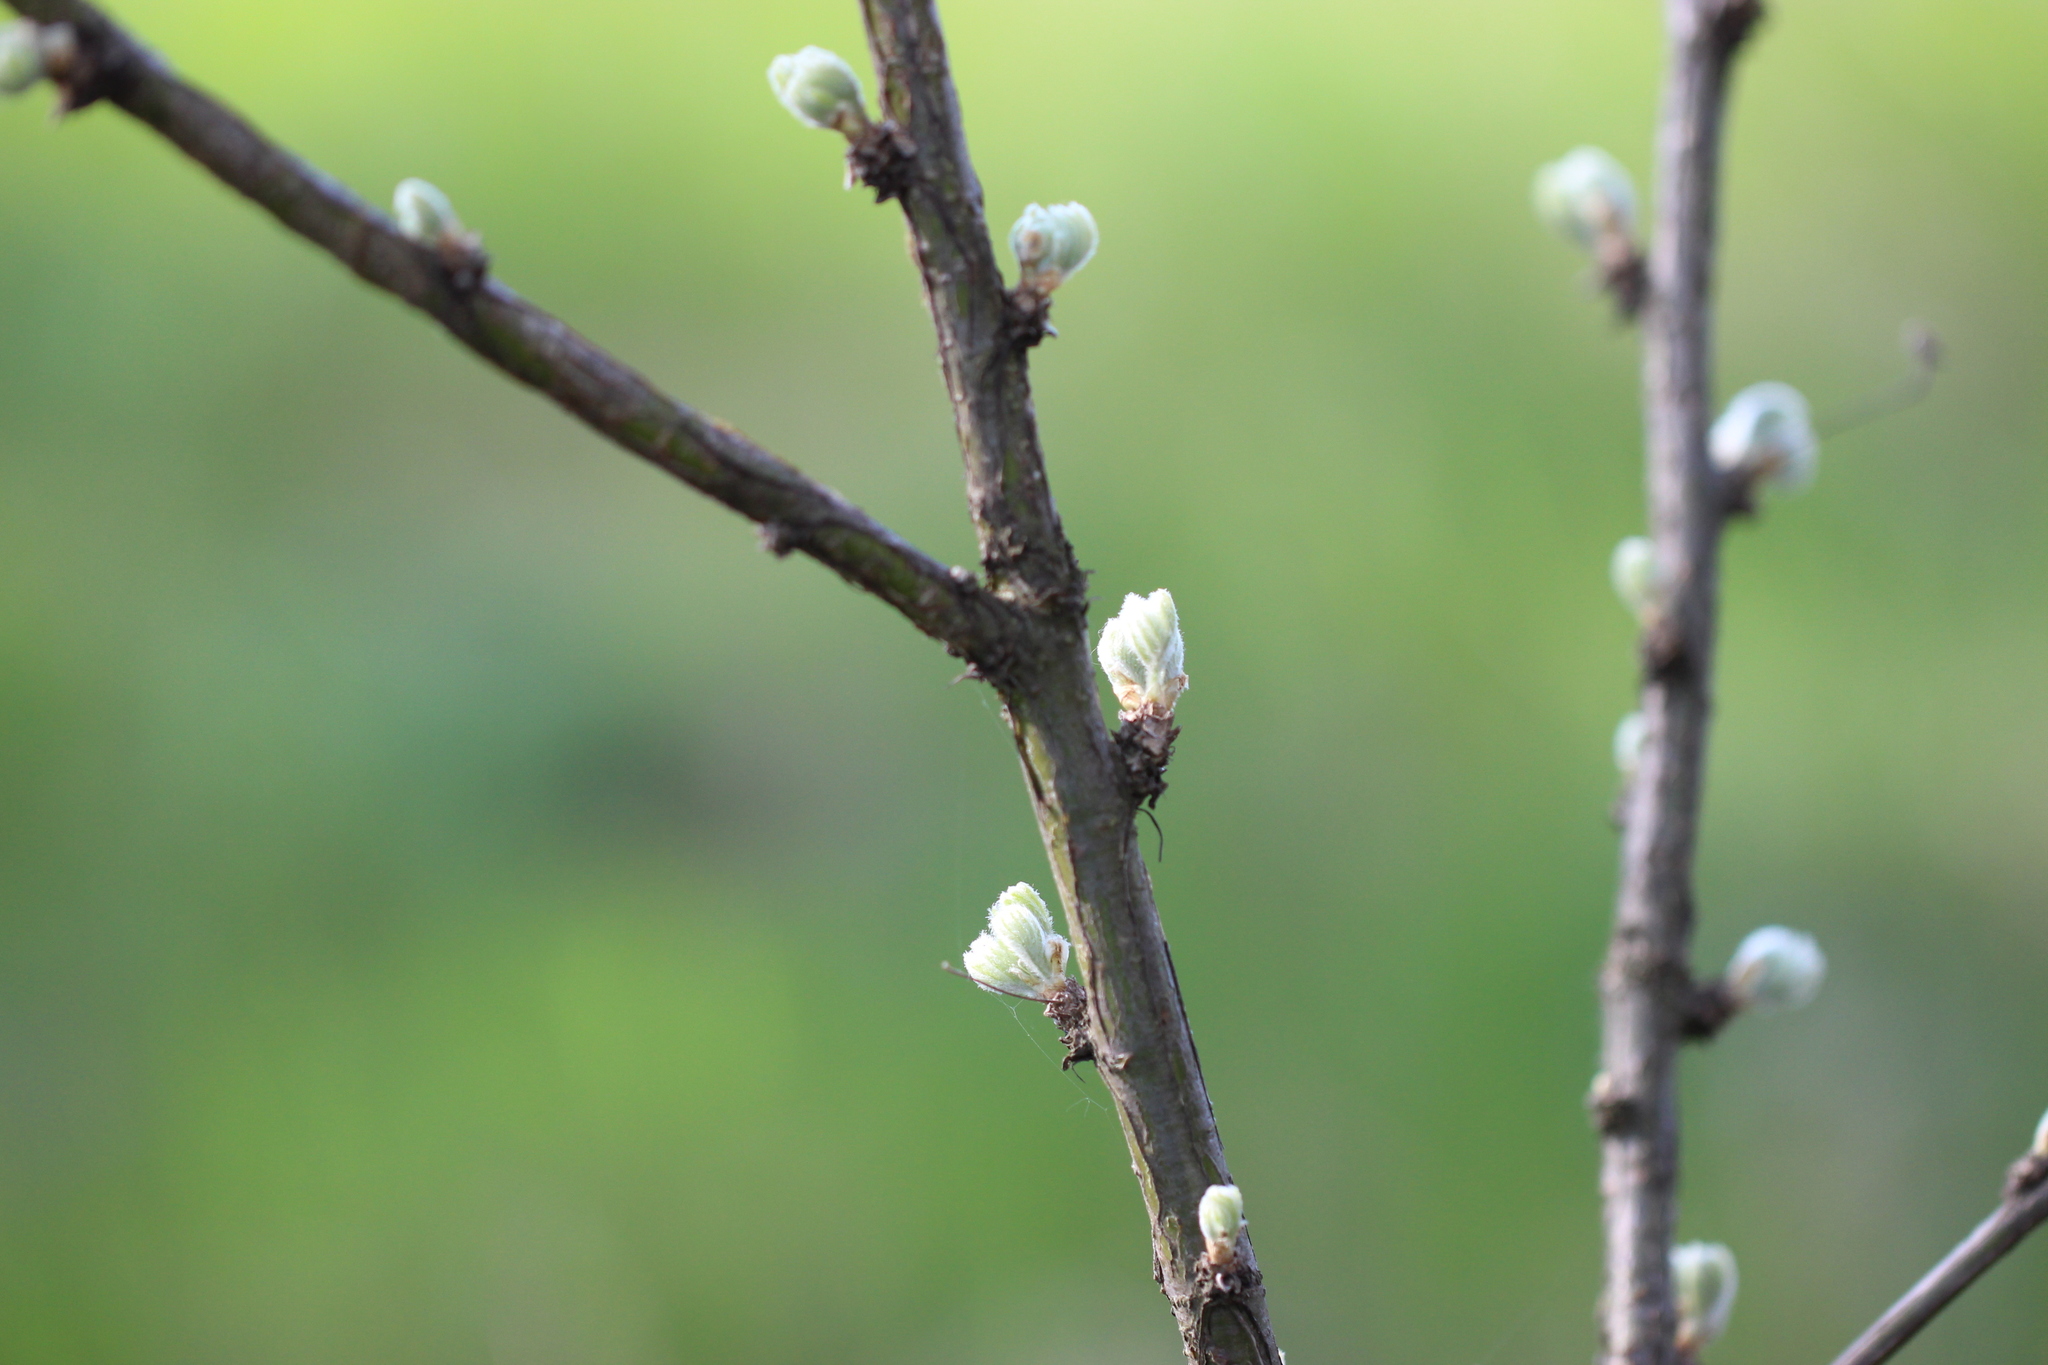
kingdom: Plantae
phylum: Tracheophyta
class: Magnoliopsida
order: Fabales
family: Fabaceae
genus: Caragana
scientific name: Caragana arborescens
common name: Siberian peashrub
